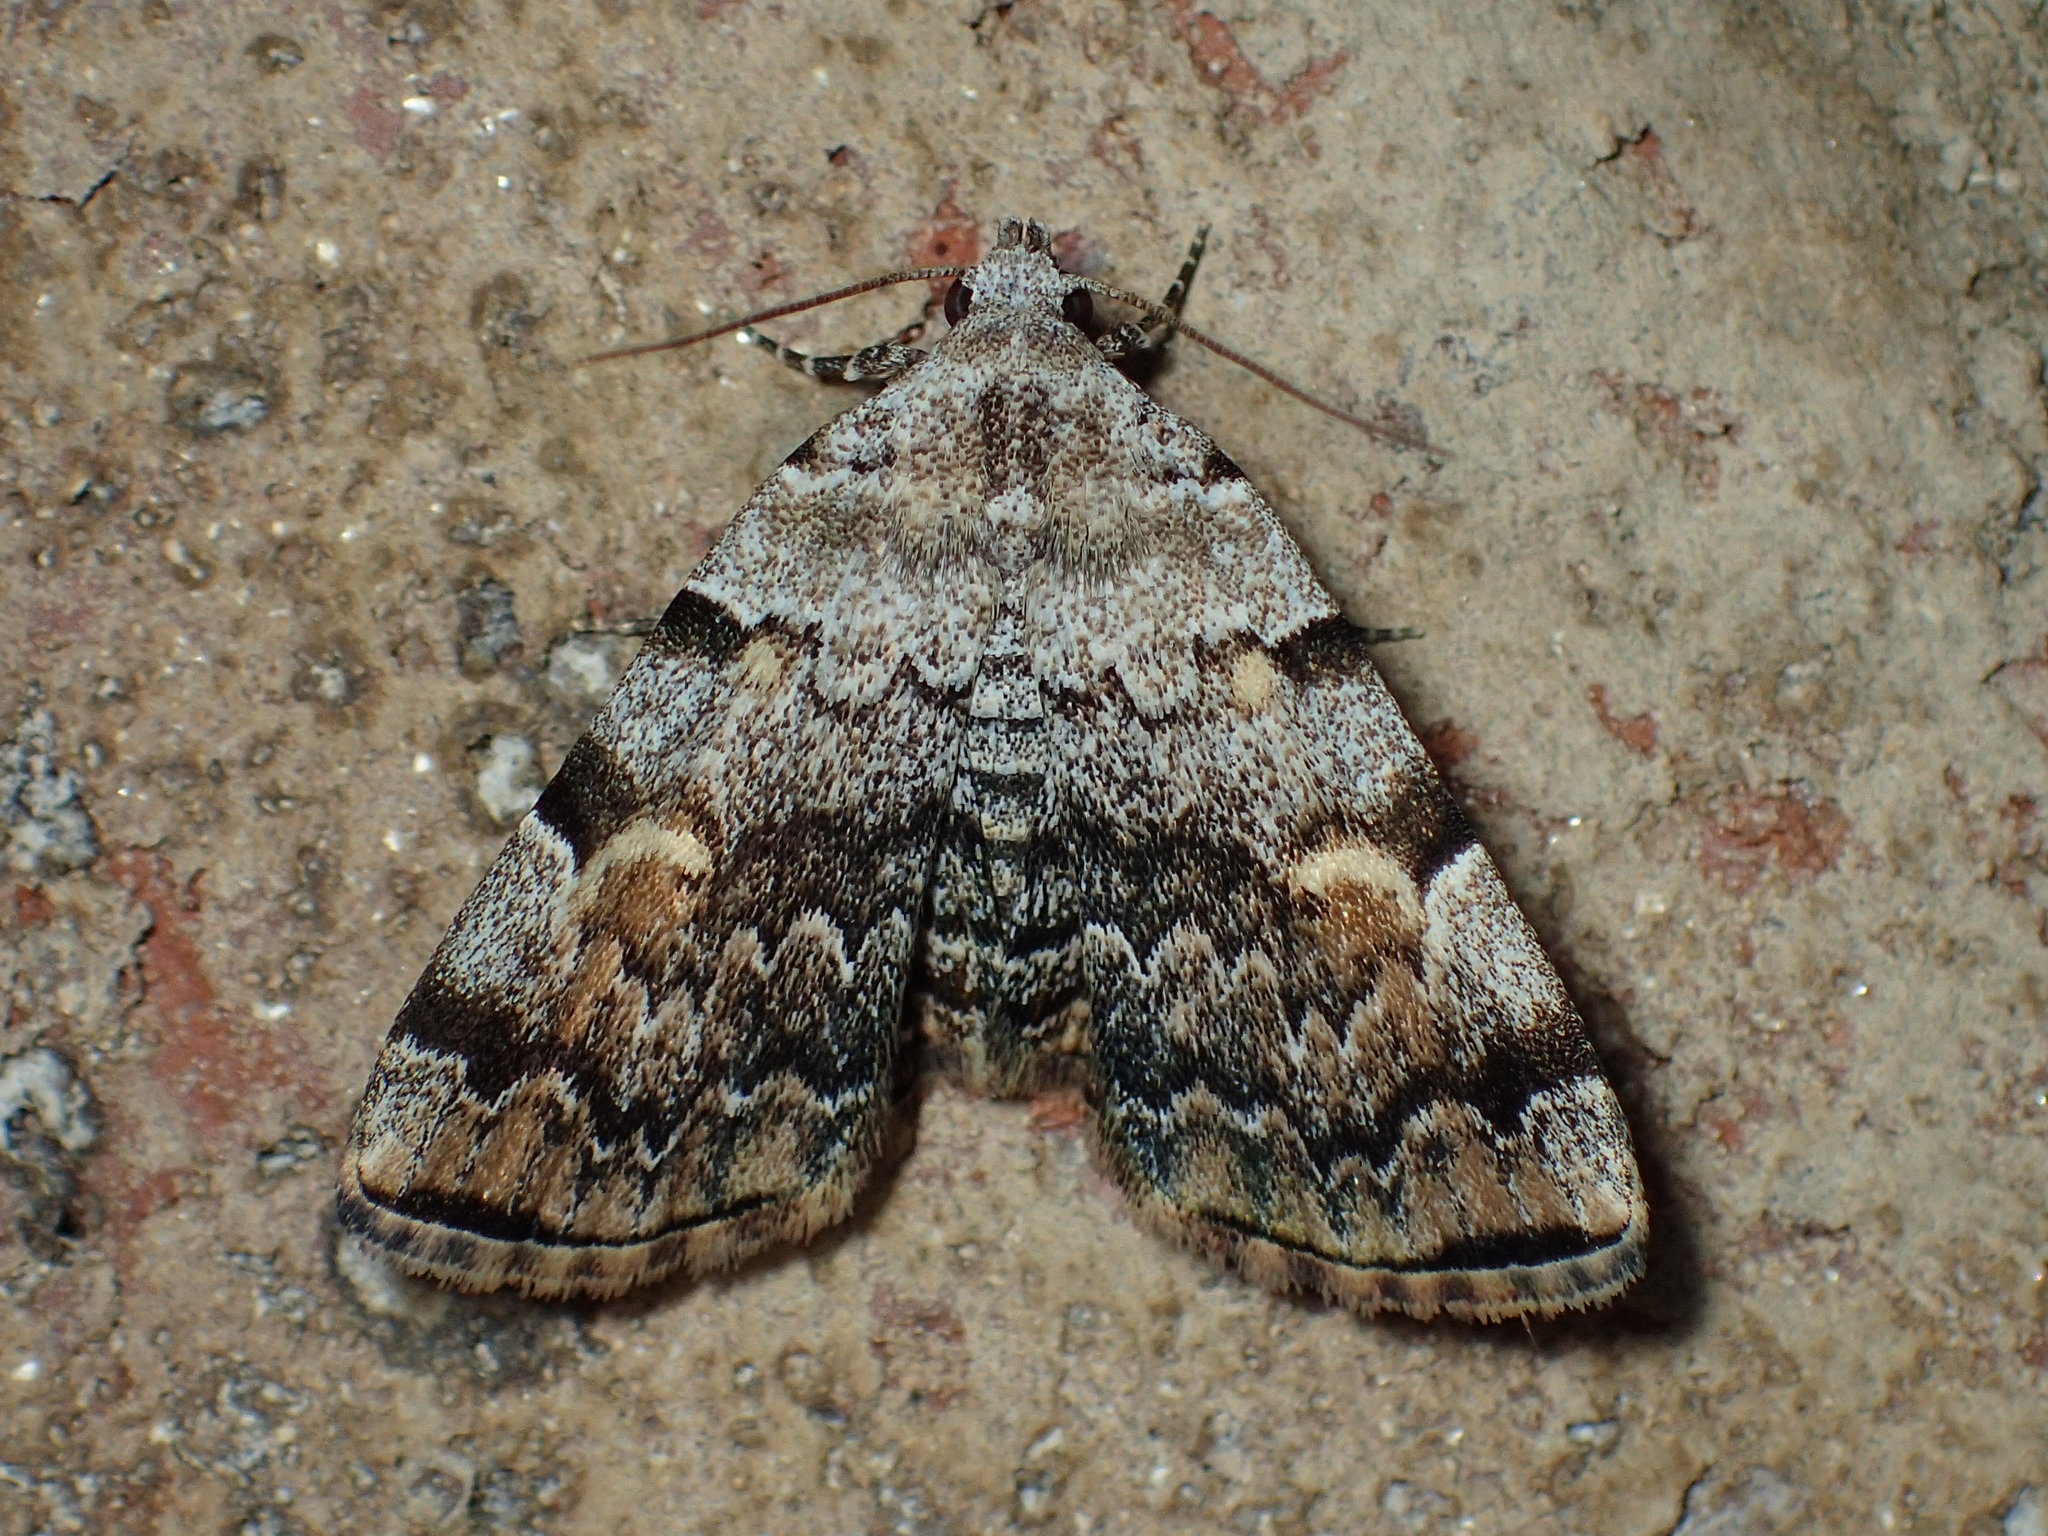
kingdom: Animalia
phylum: Arthropoda
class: Insecta
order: Lepidoptera
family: Erebidae
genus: Idia
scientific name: Idia americalis
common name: American idia moth
